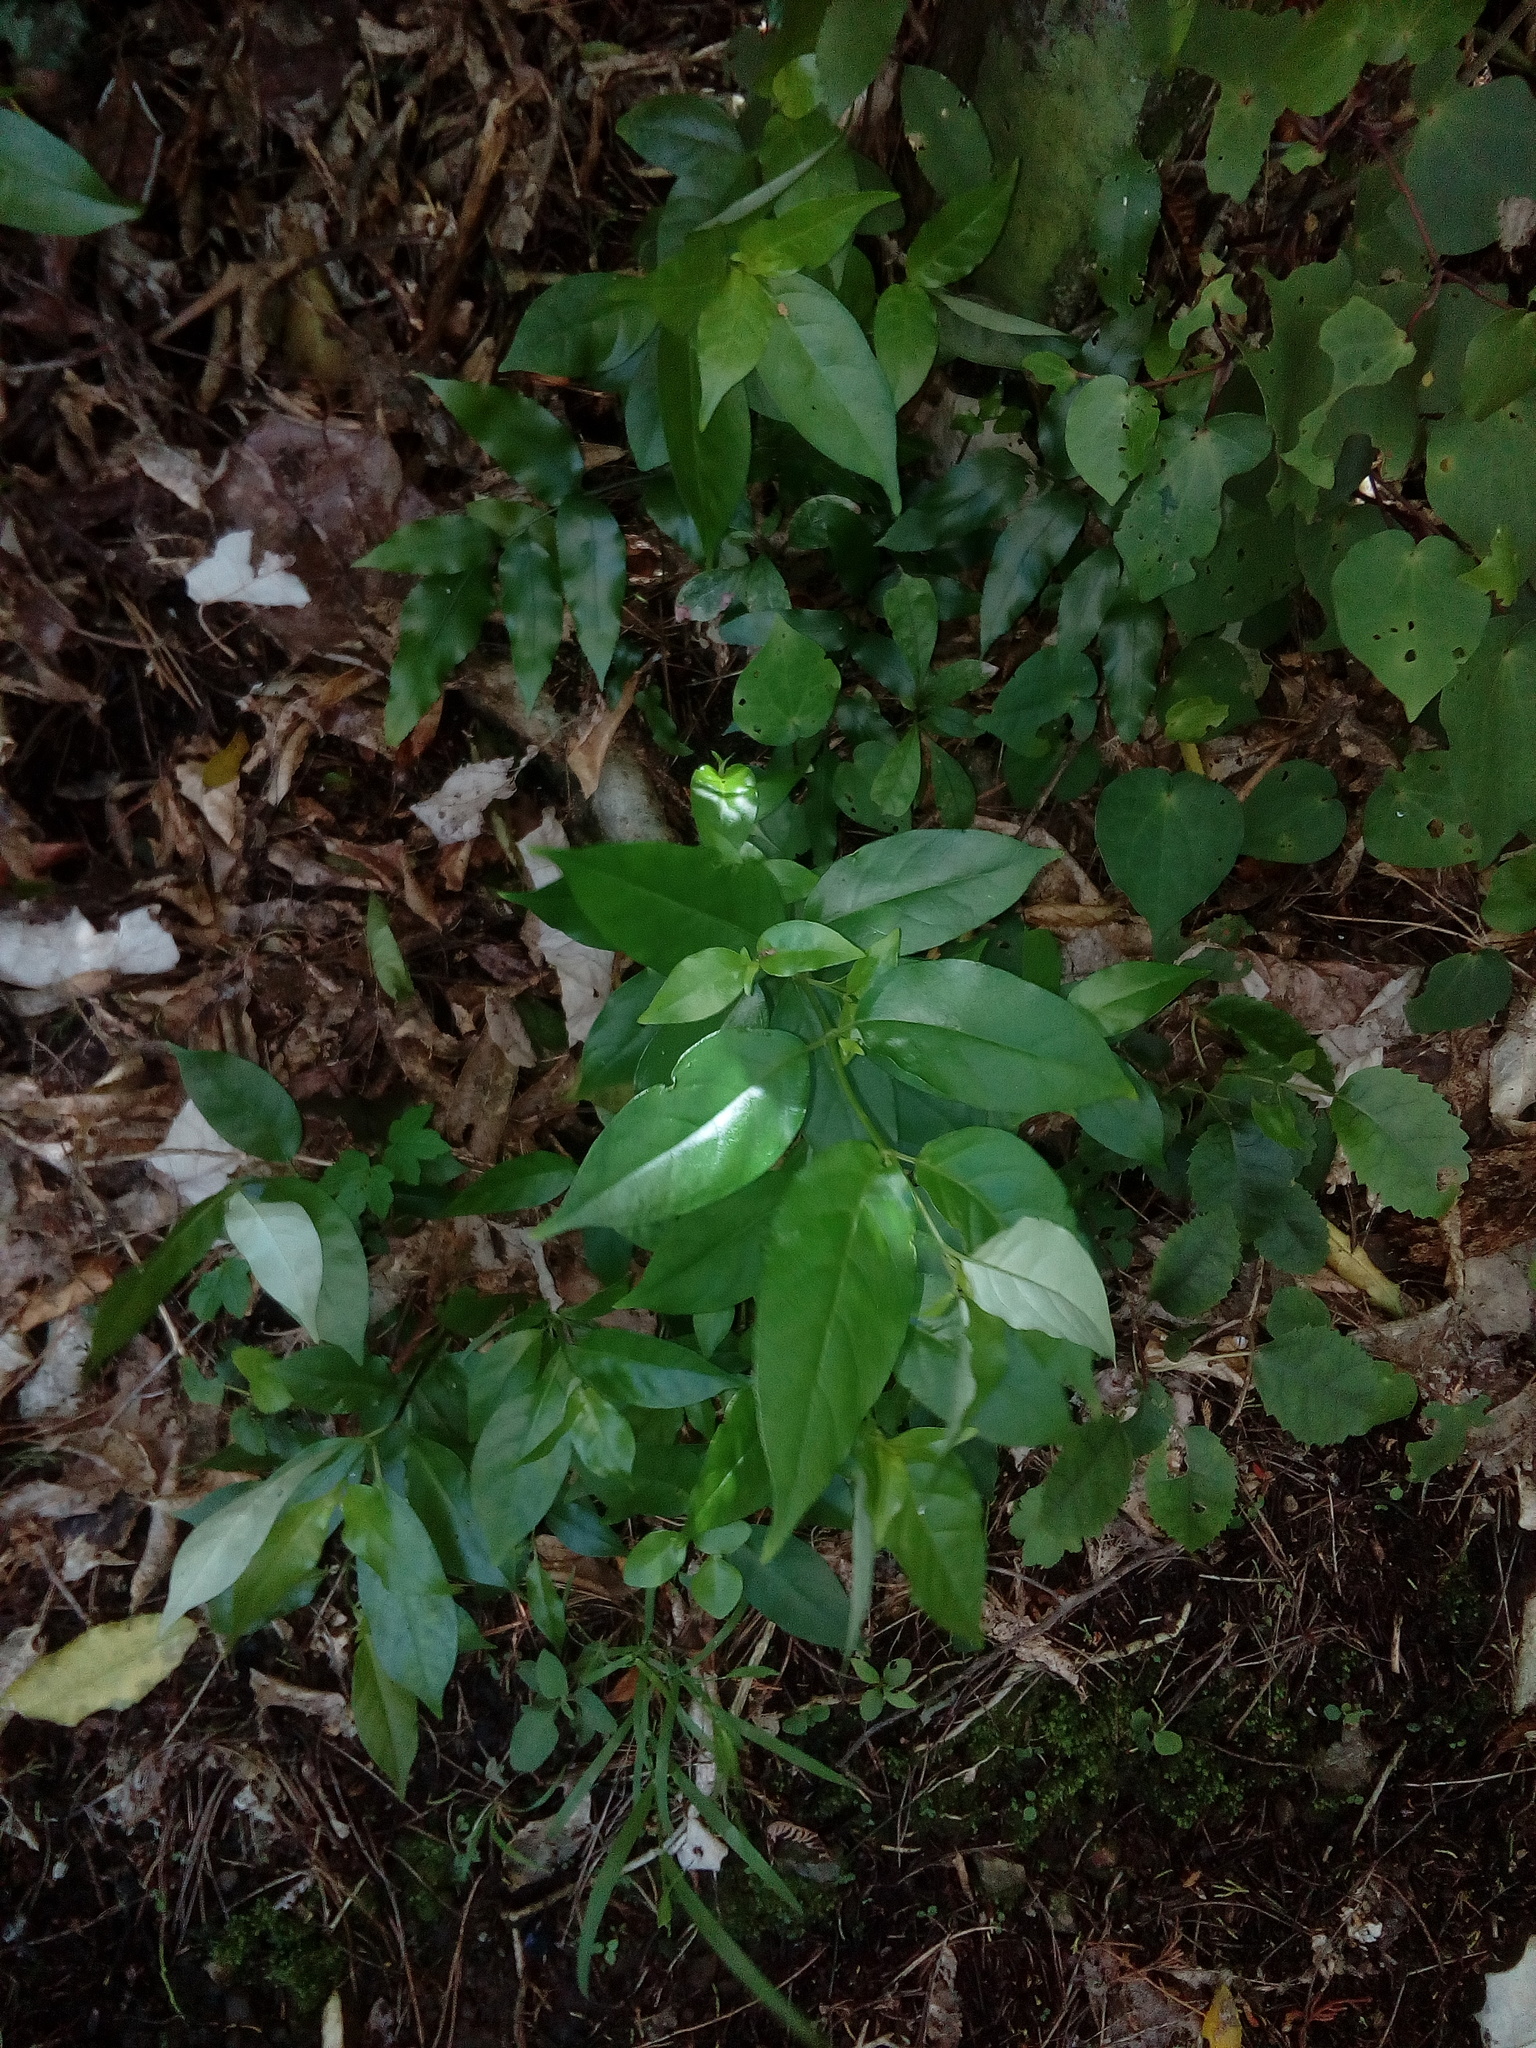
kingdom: Plantae
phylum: Tracheophyta
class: Magnoliopsida
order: Gentianales
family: Loganiaceae
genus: Geniostoma
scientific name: Geniostoma ligustrifolium
